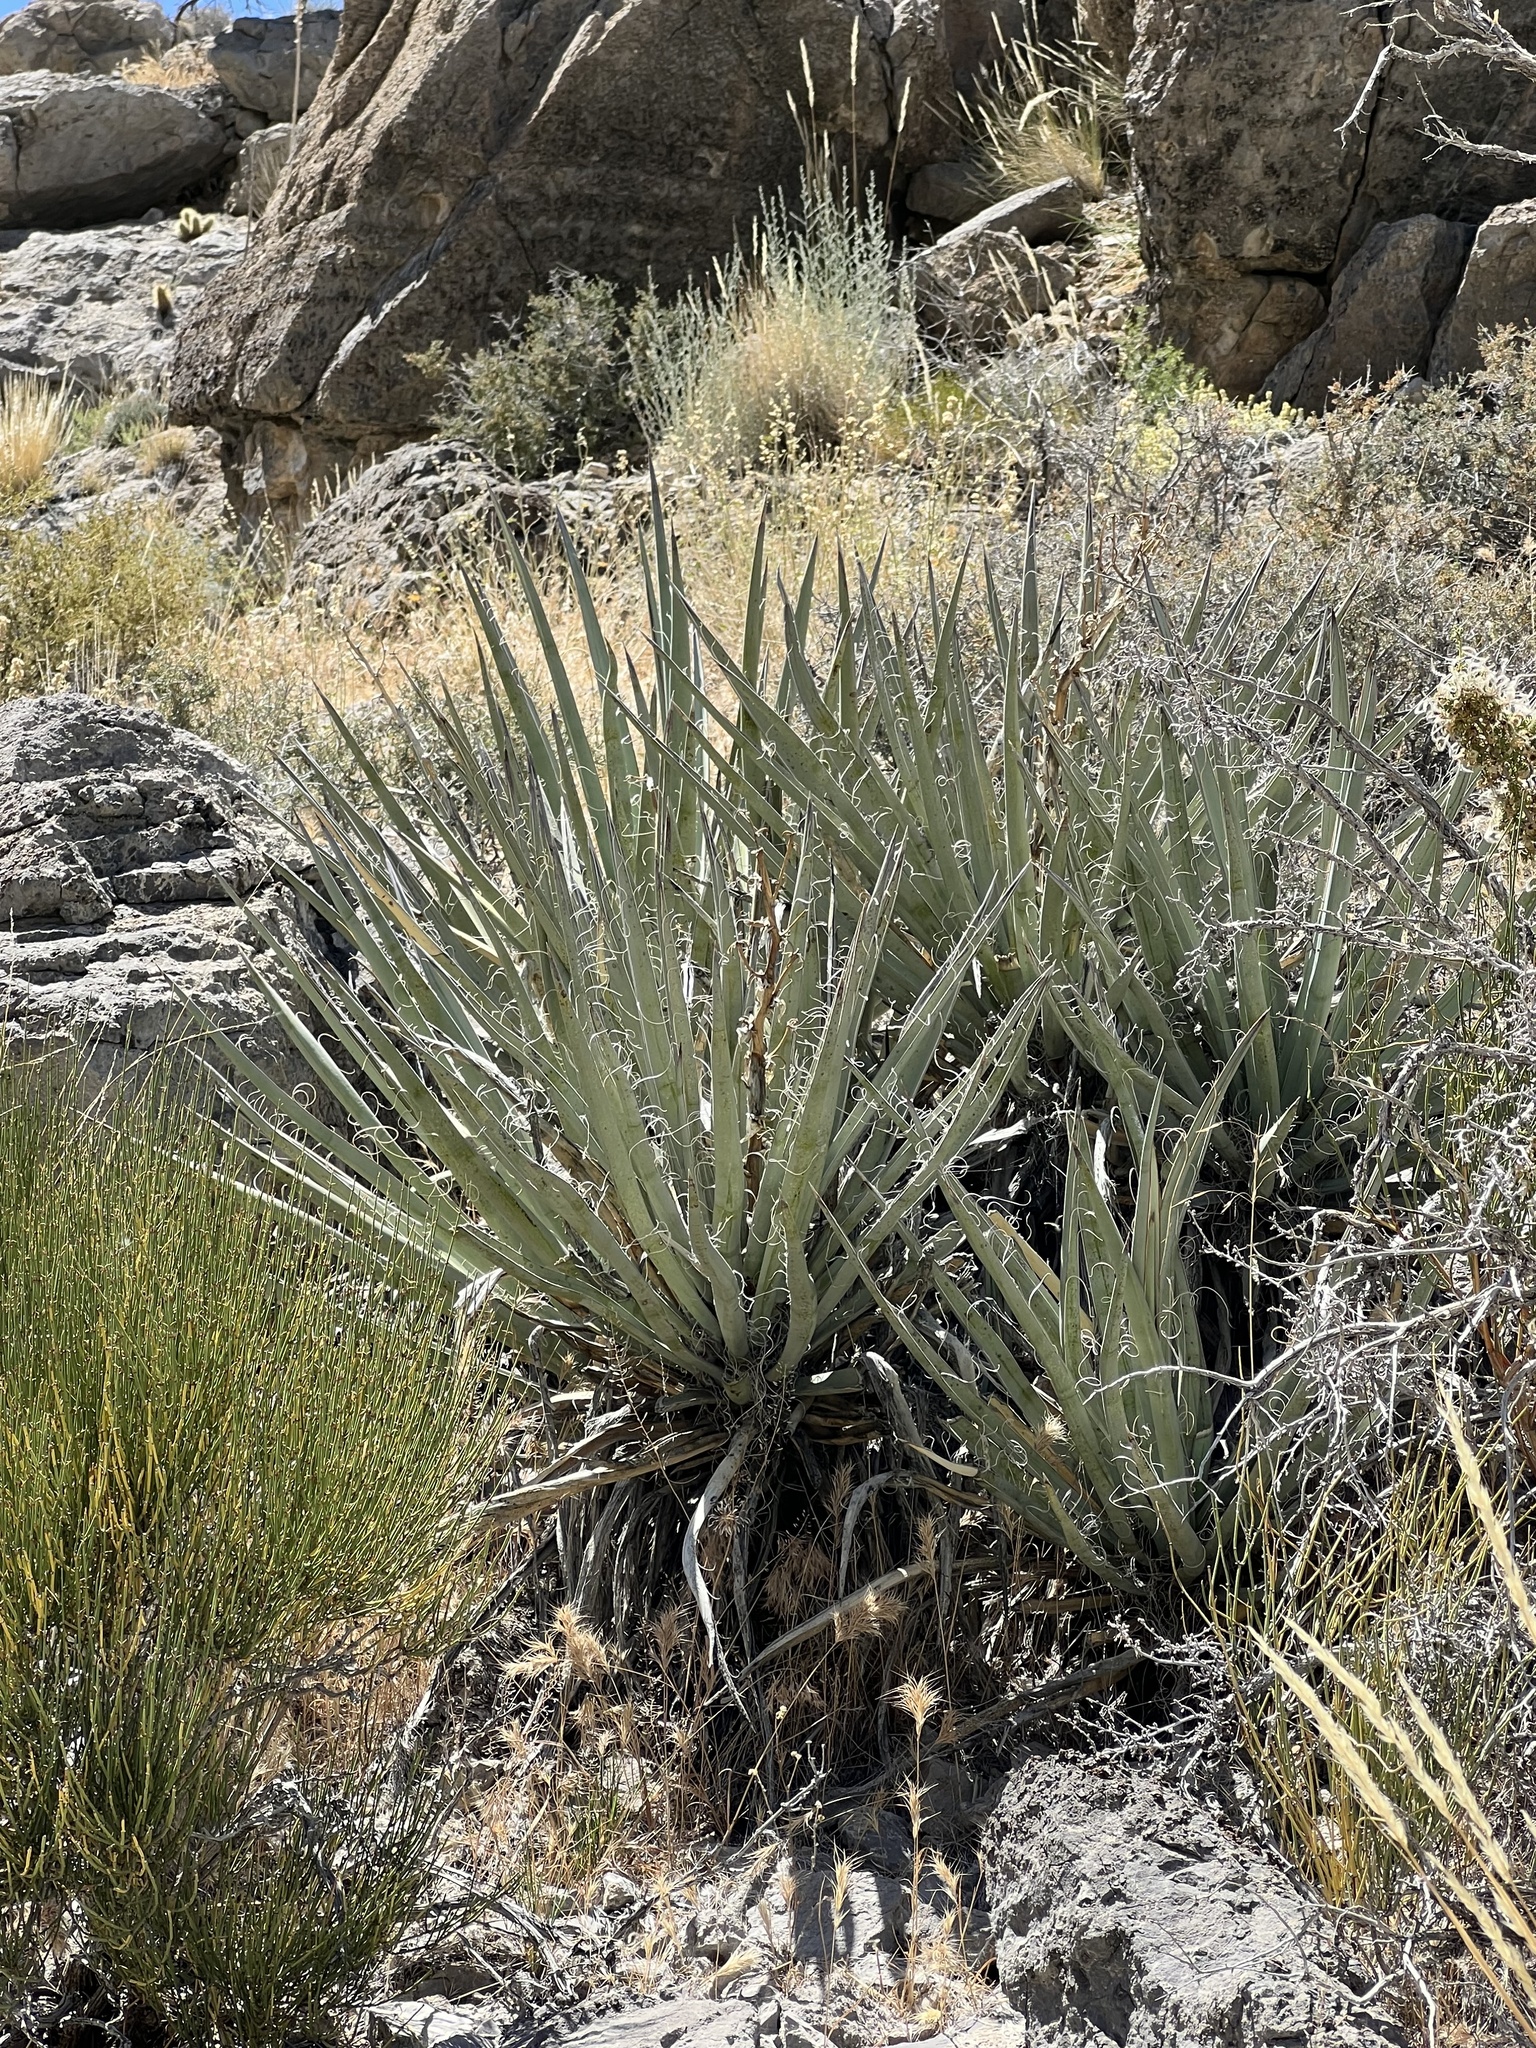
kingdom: Plantae
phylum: Tracheophyta
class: Liliopsida
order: Asparagales
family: Asparagaceae
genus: Yucca
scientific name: Yucca baccata
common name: Banana yucca
